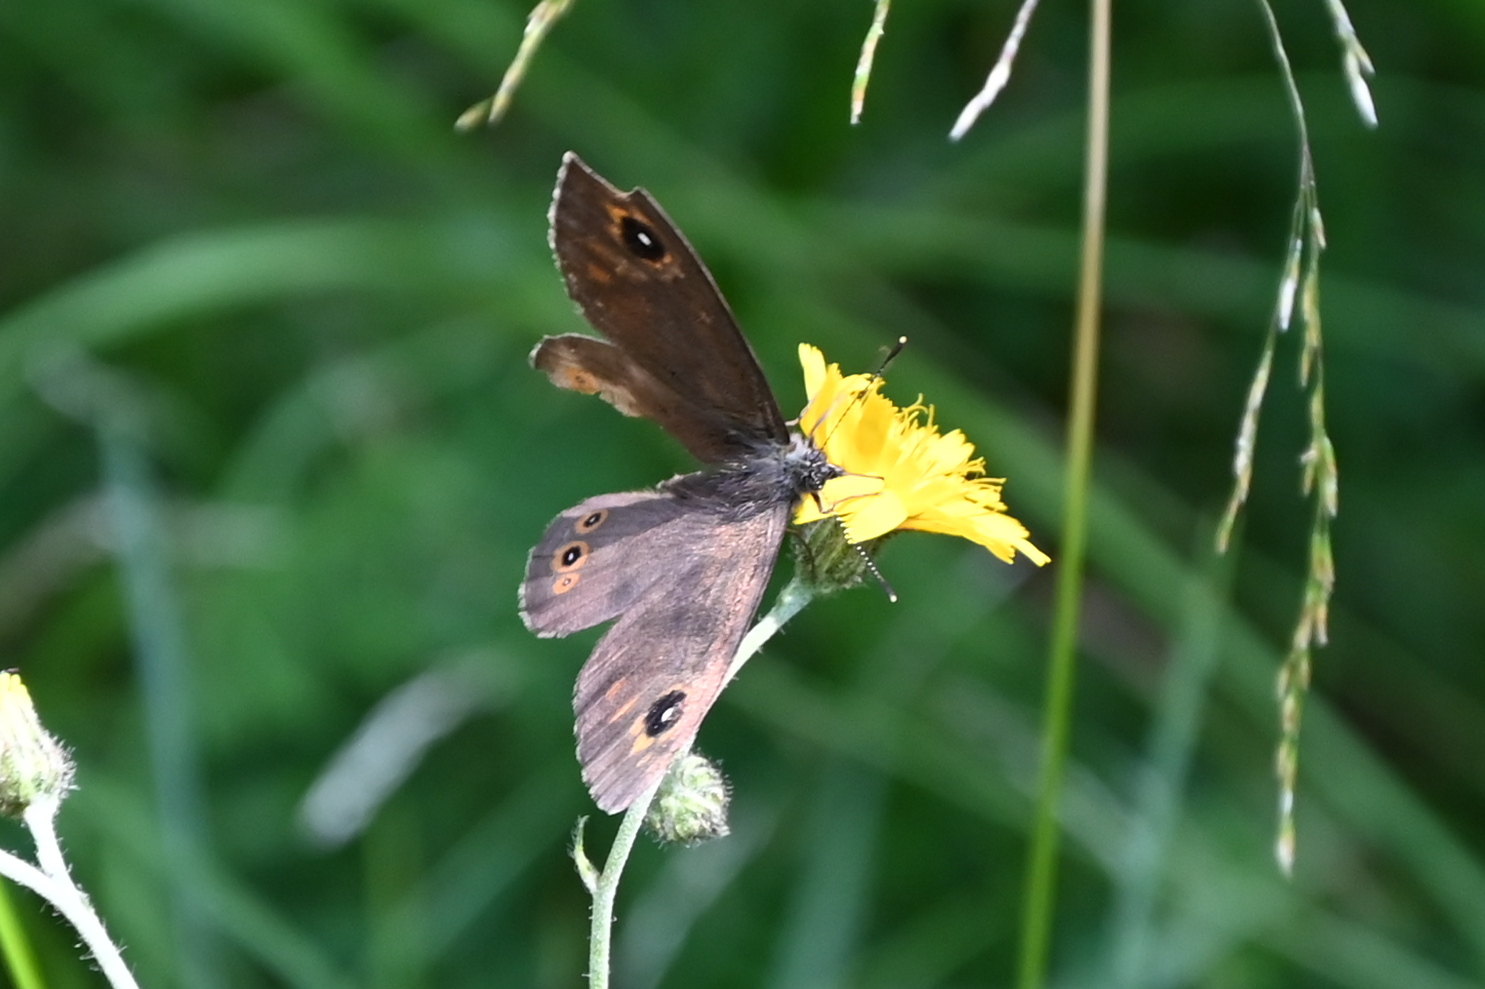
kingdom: Animalia
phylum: Arthropoda
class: Insecta
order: Lepidoptera
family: Nymphalidae
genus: Pararge
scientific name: Pararge Lasiommata maera
